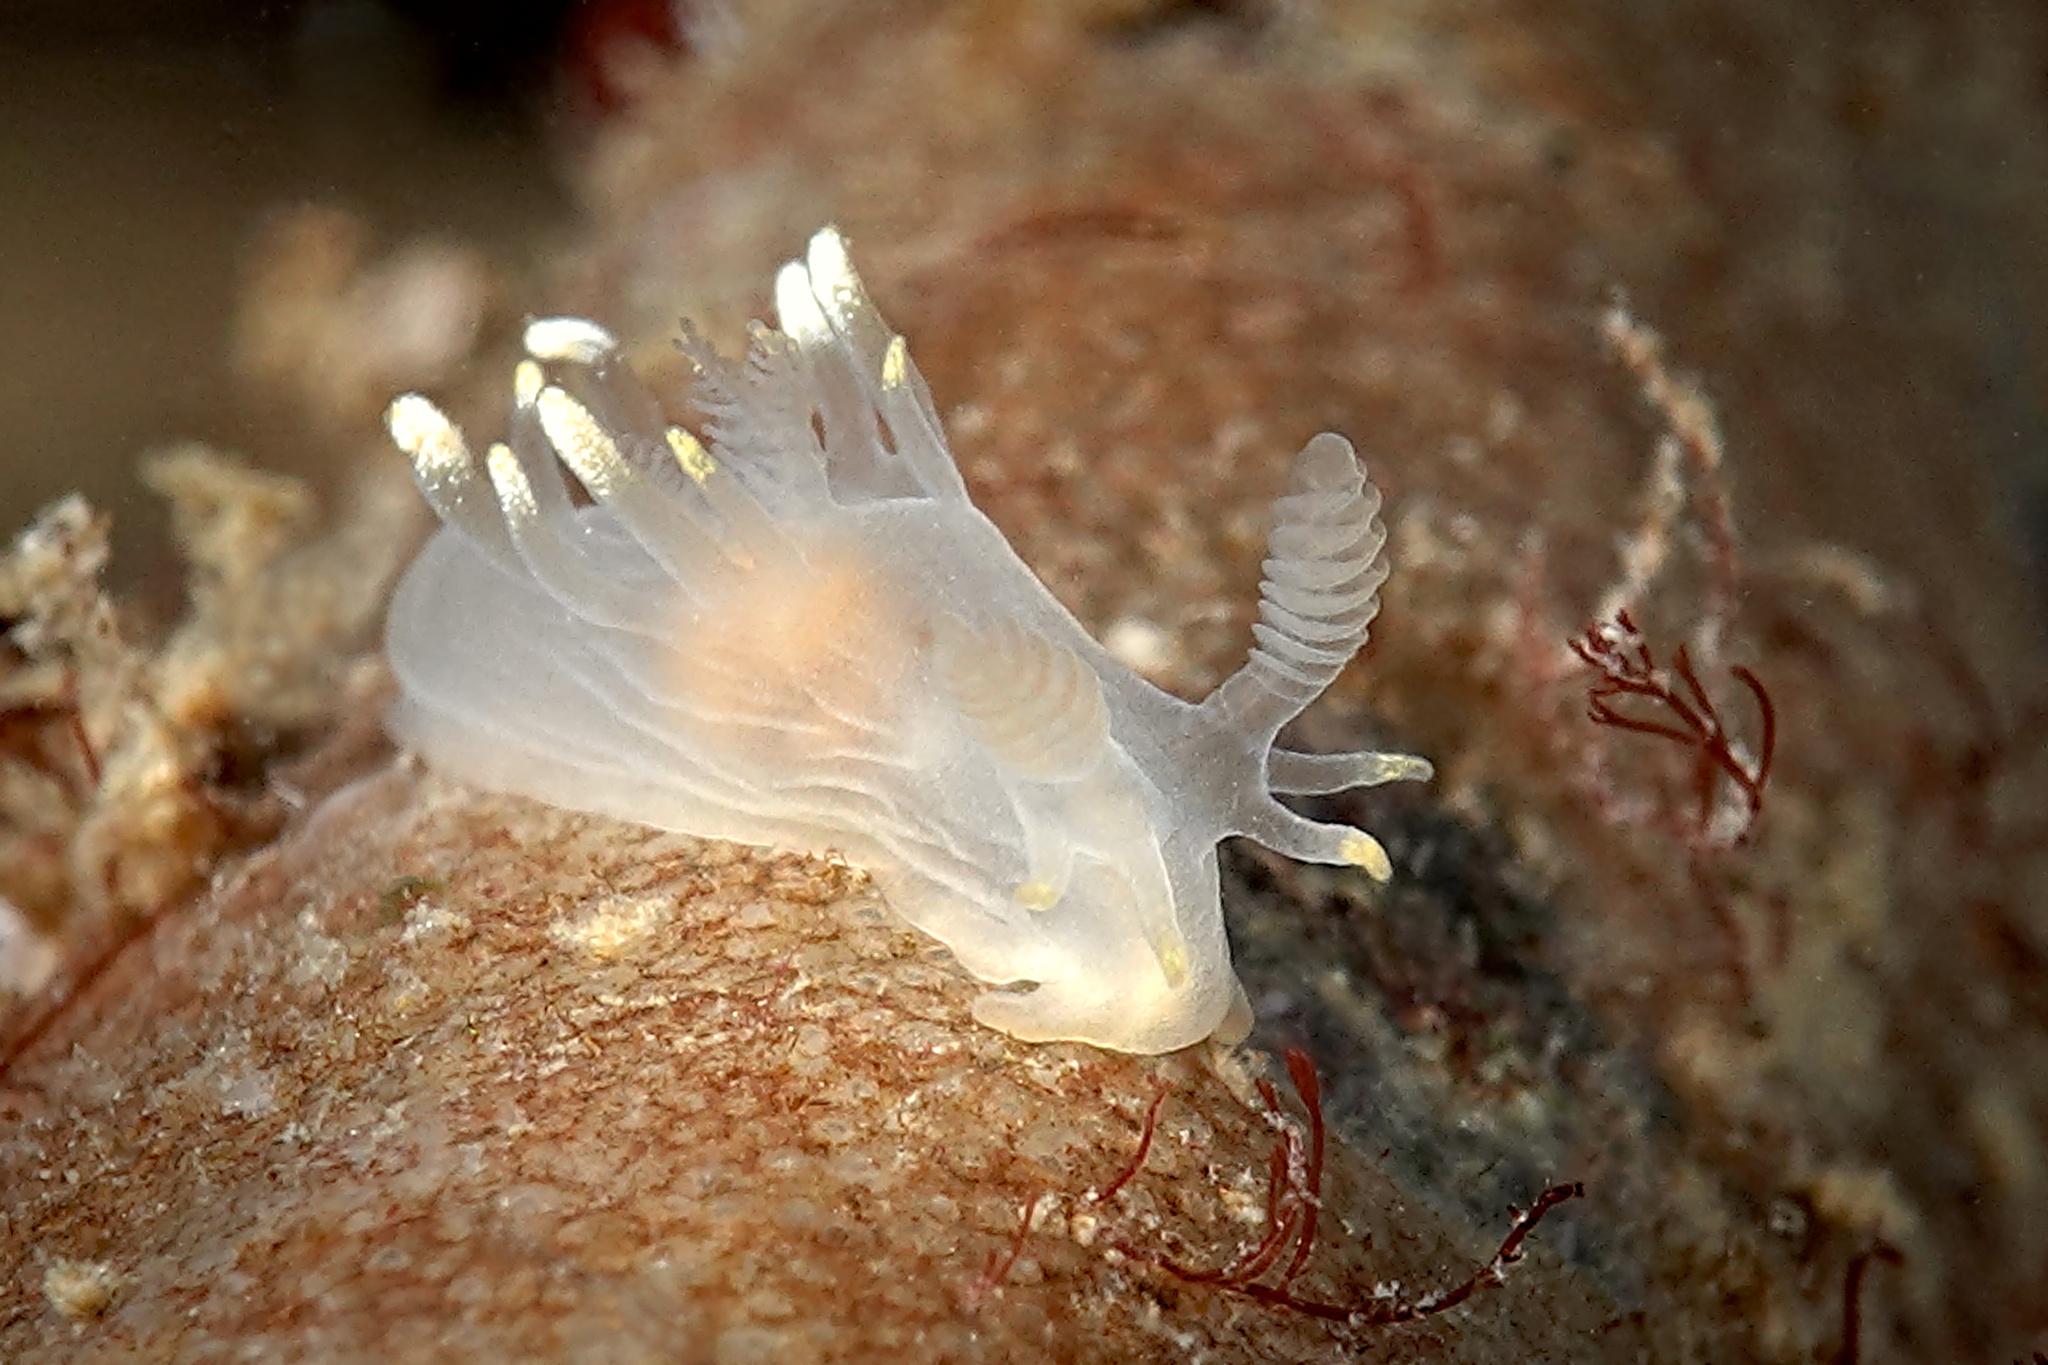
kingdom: Animalia
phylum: Mollusca
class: Gastropoda
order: Nudibranchia
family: Goniodorididae
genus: Ancula
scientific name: Ancula gibbosa
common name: Atlantic ancula
